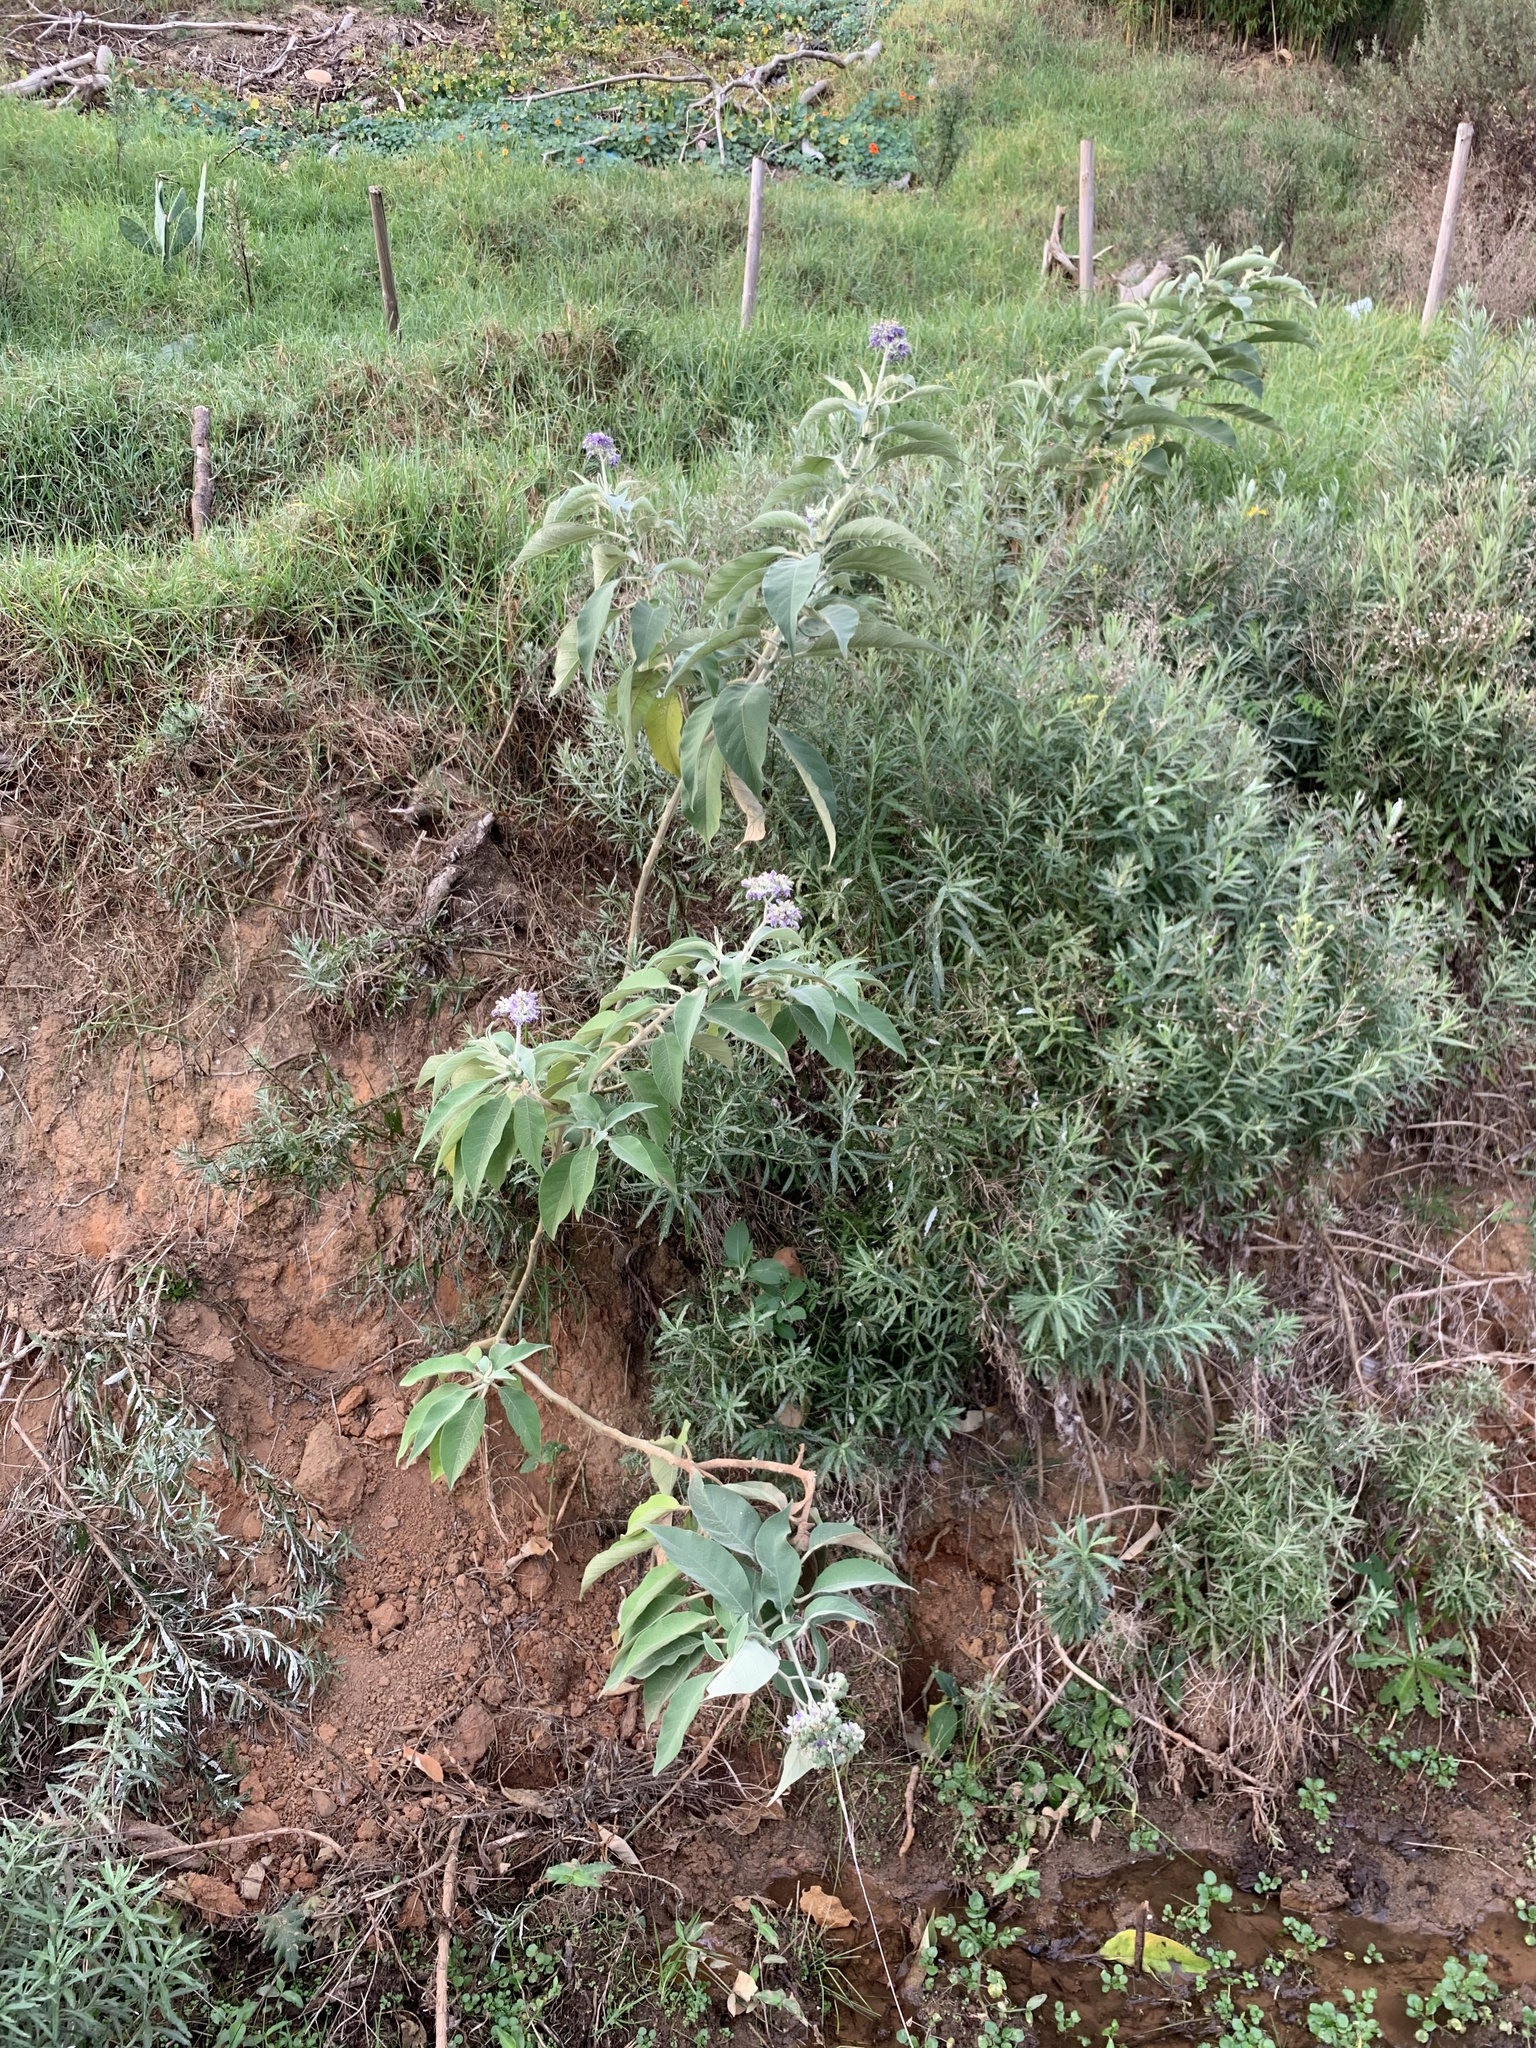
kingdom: Plantae
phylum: Tracheophyta
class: Magnoliopsida
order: Solanales
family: Solanaceae
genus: Solanum
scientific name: Solanum mauritianum
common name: Earleaf nightshade
